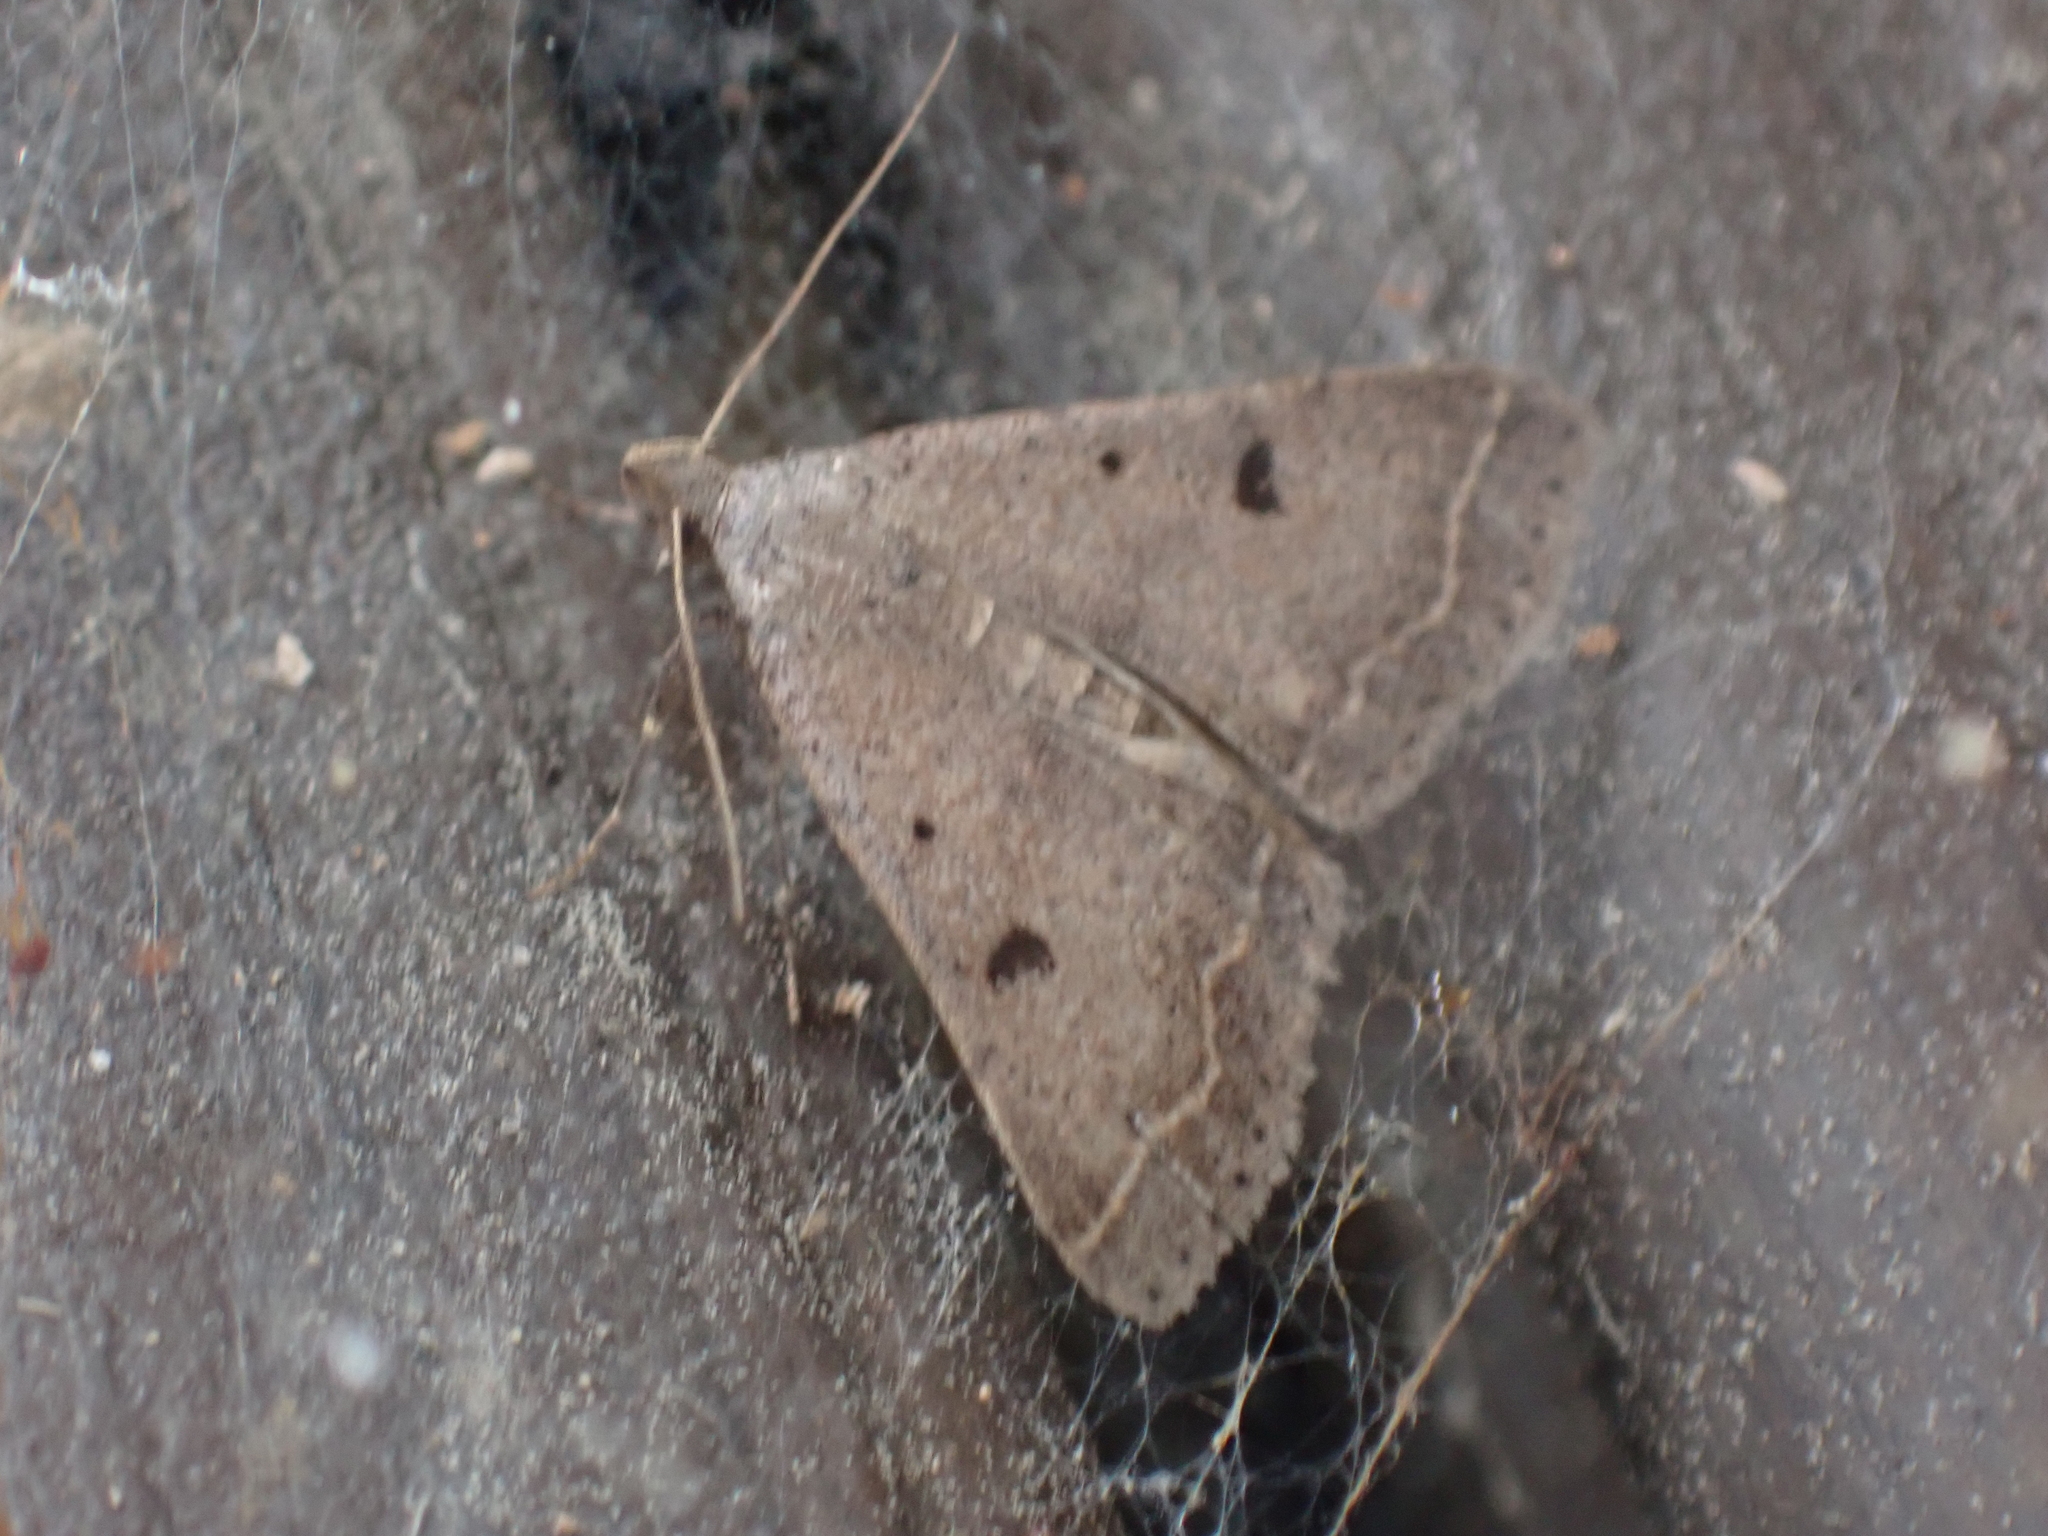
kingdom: Animalia
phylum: Arthropoda
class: Insecta
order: Lepidoptera
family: Erebidae
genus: Bleptina
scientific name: Bleptina caradrinalis
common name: Bent-winged owlet
